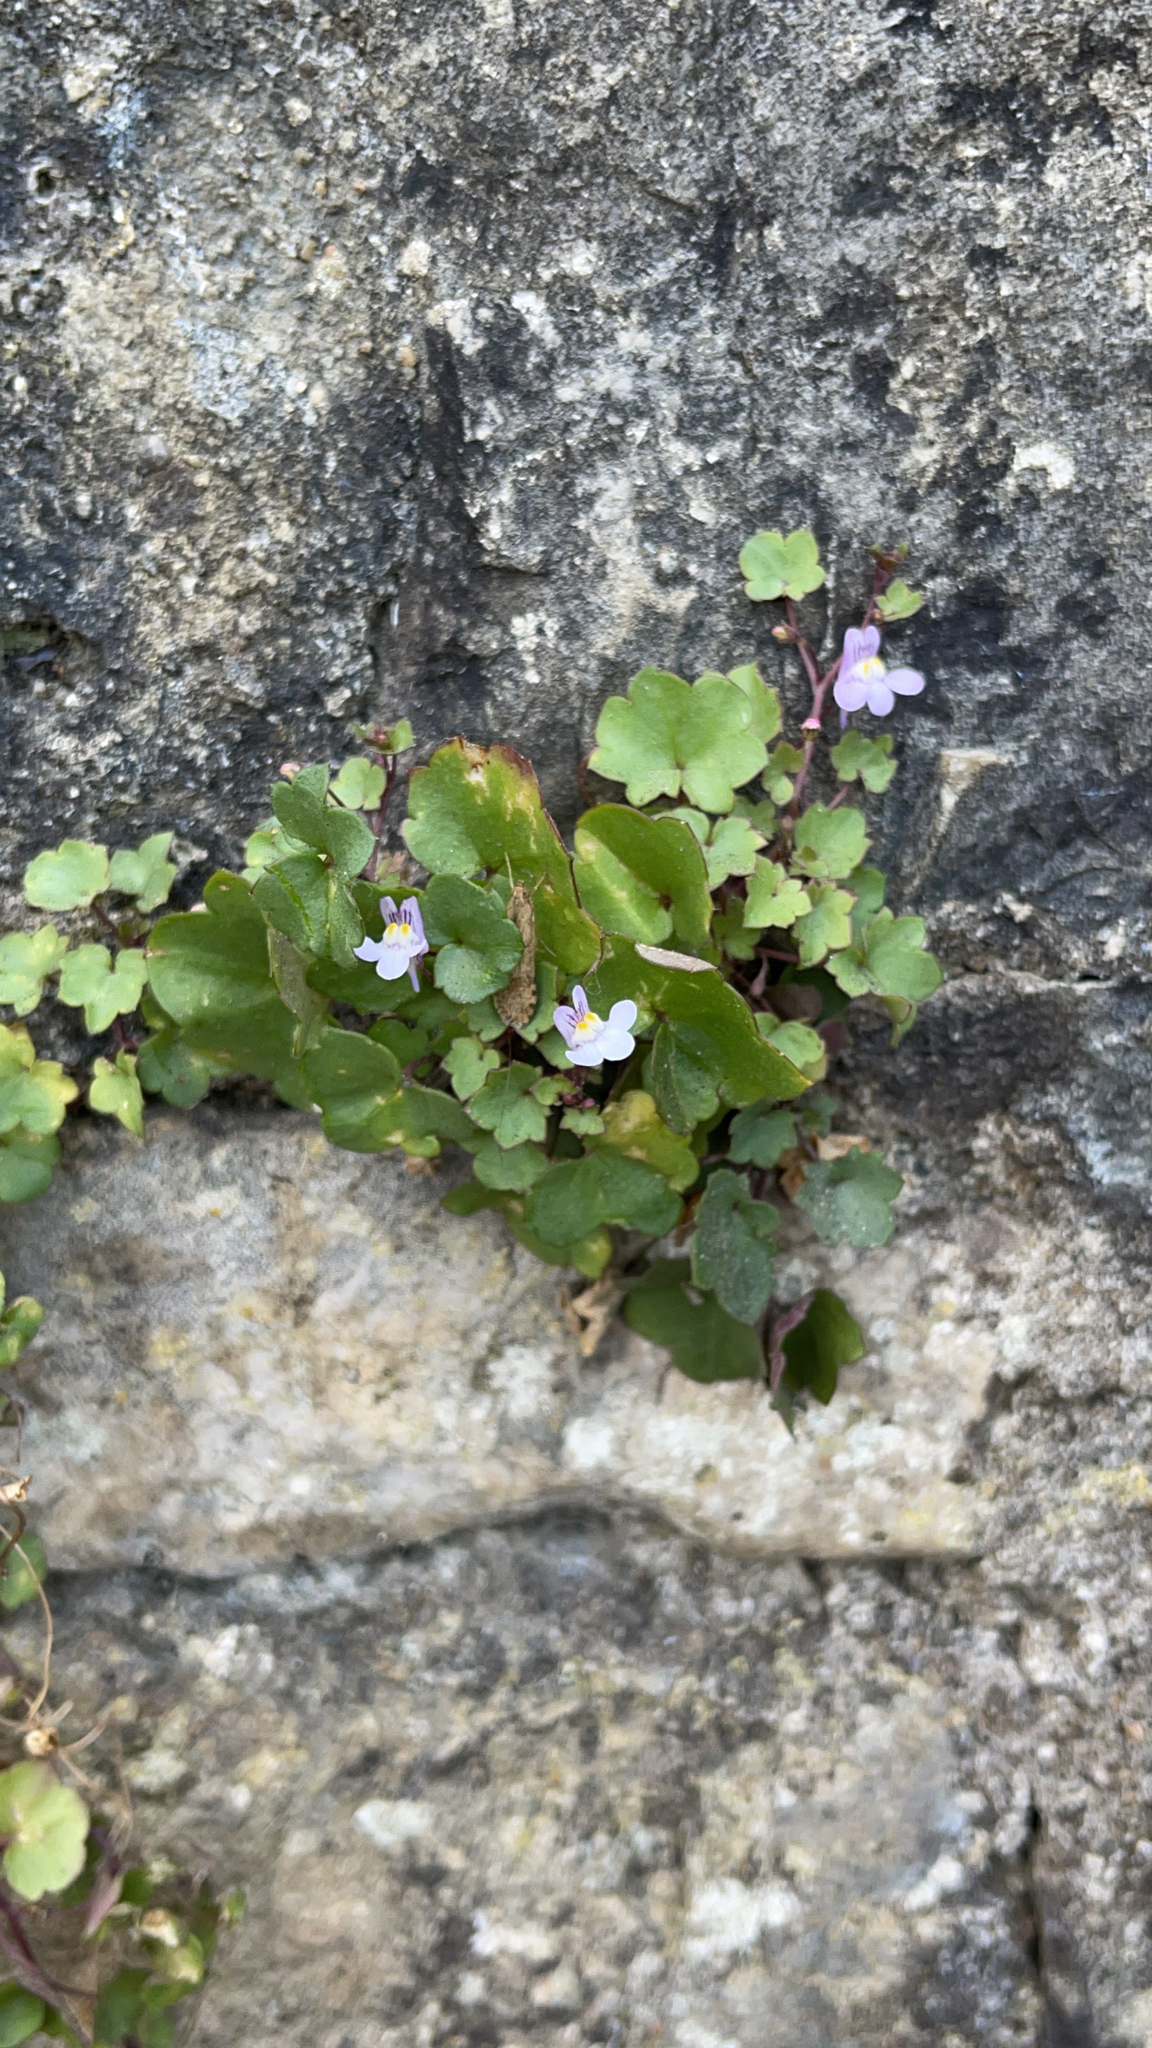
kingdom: Plantae
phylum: Tracheophyta
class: Magnoliopsida
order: Lamiales
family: Plantaginaceae
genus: Cymbalaria
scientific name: Cymbalaria muralis
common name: Ivy-leaved toadflax
